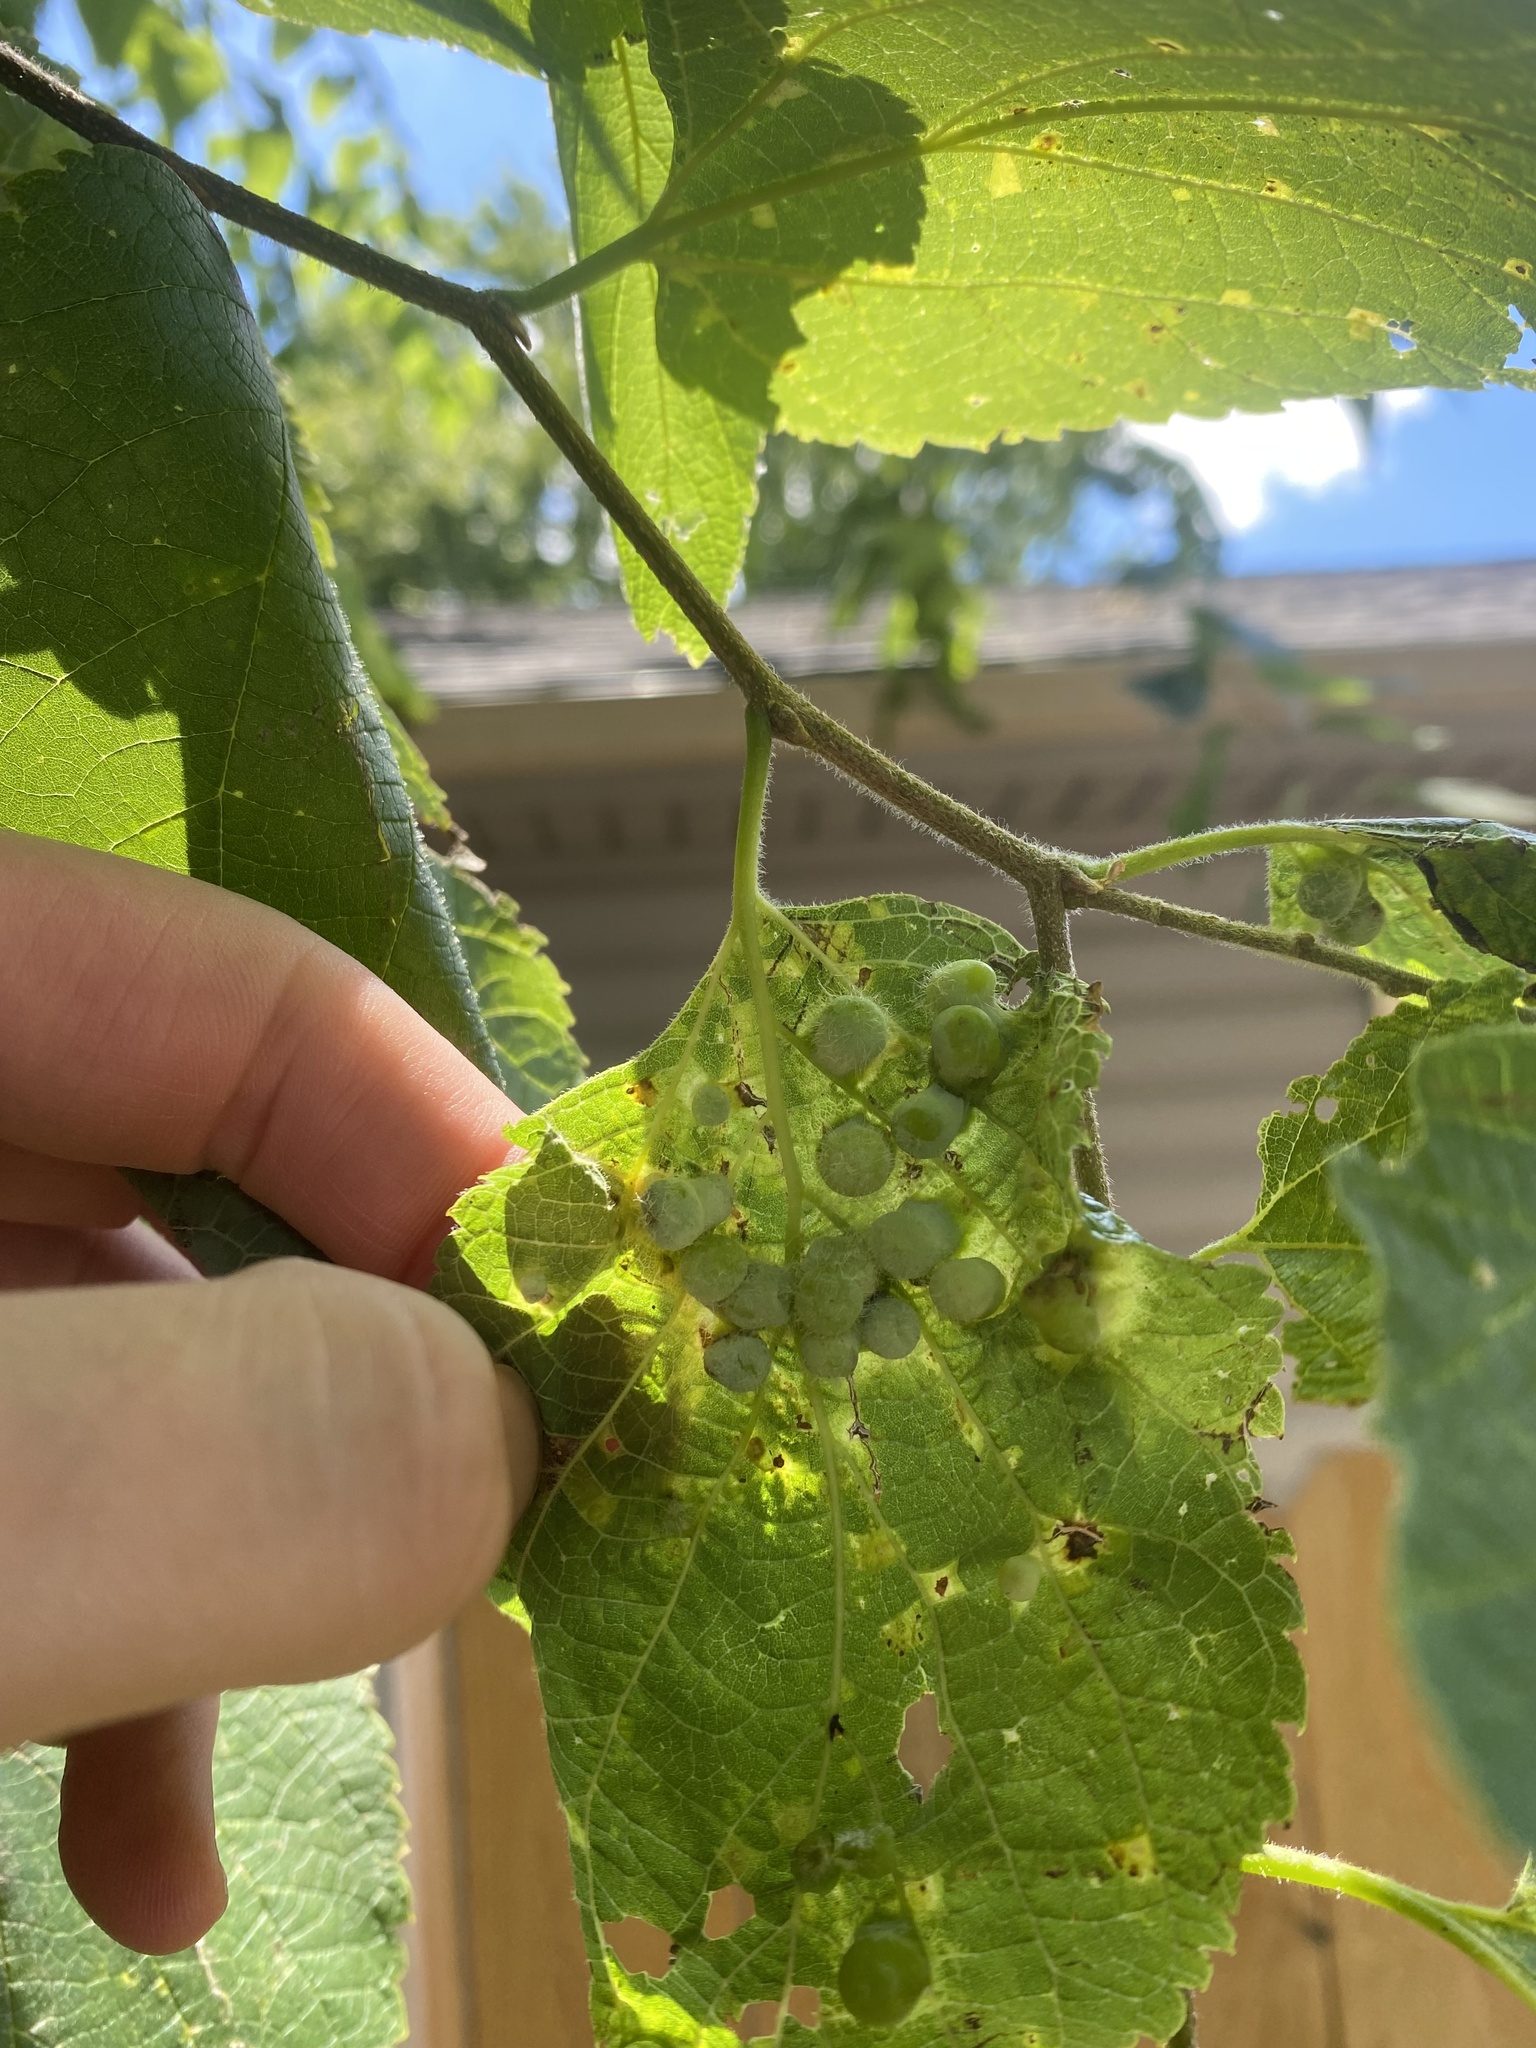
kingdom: Animalia
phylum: Arthropoda
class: Insecta
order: Hemiptera
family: Aphalaridae
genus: Pachypsylla
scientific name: Pachypsylla celtidismamma
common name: Hackberry nipplegall psyllid
